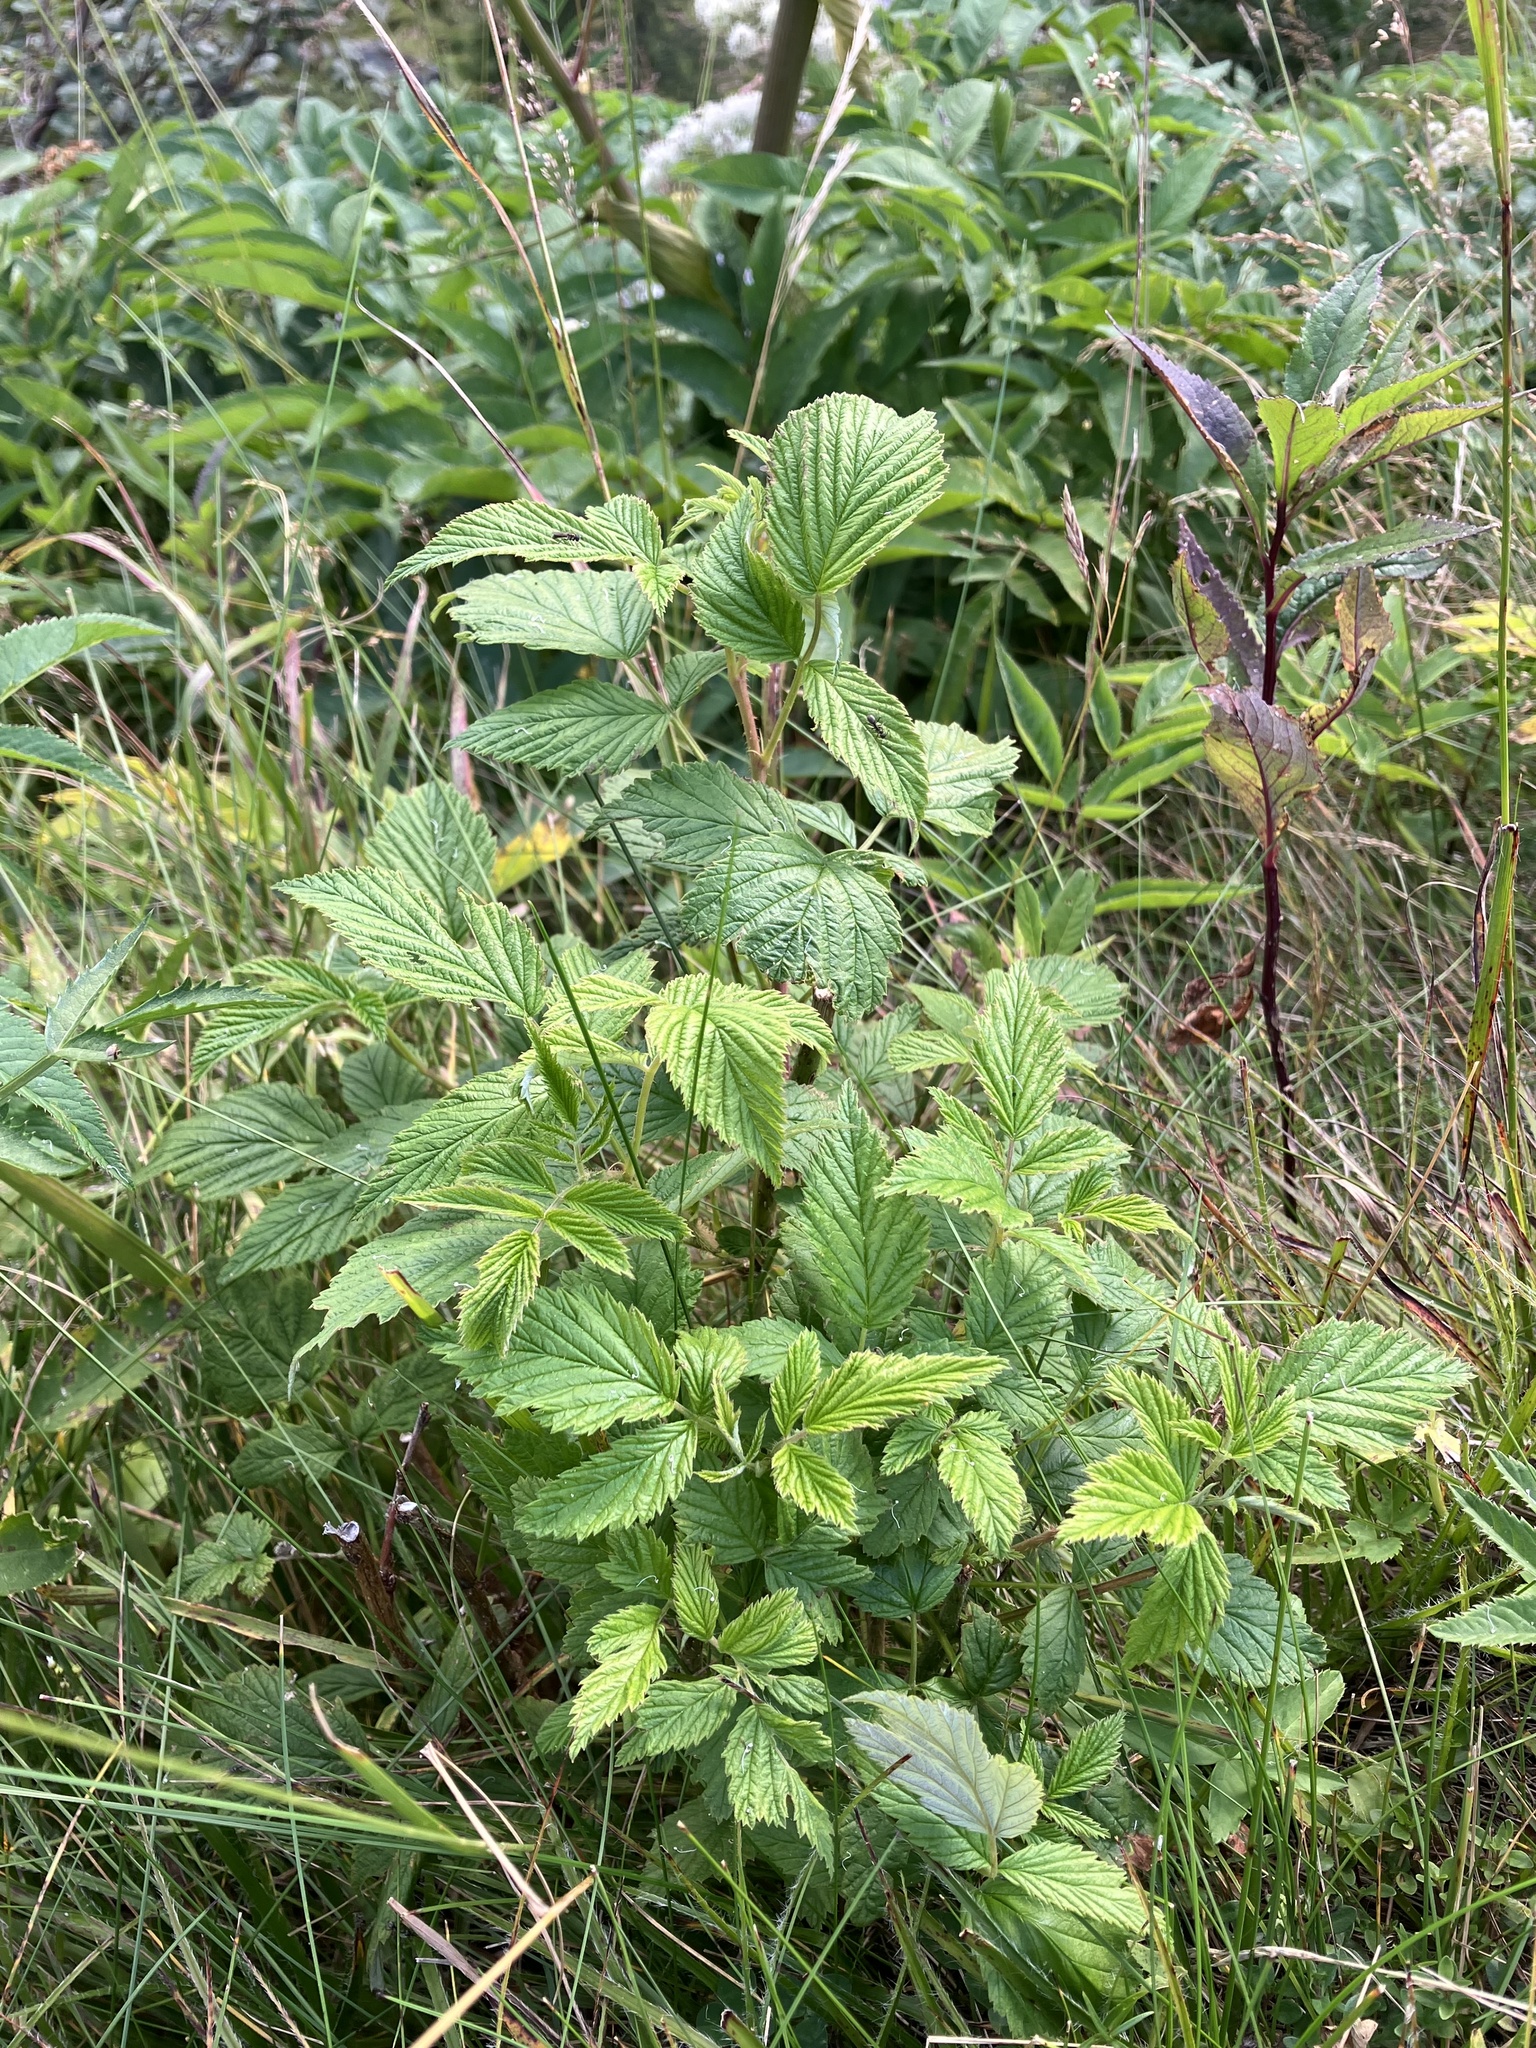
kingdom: Plantae
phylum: Tracheophyta
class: Magnoliopsida
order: Rosales
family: Rosaceae
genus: Rubus
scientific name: Rubus idaeus
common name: Raspberry
